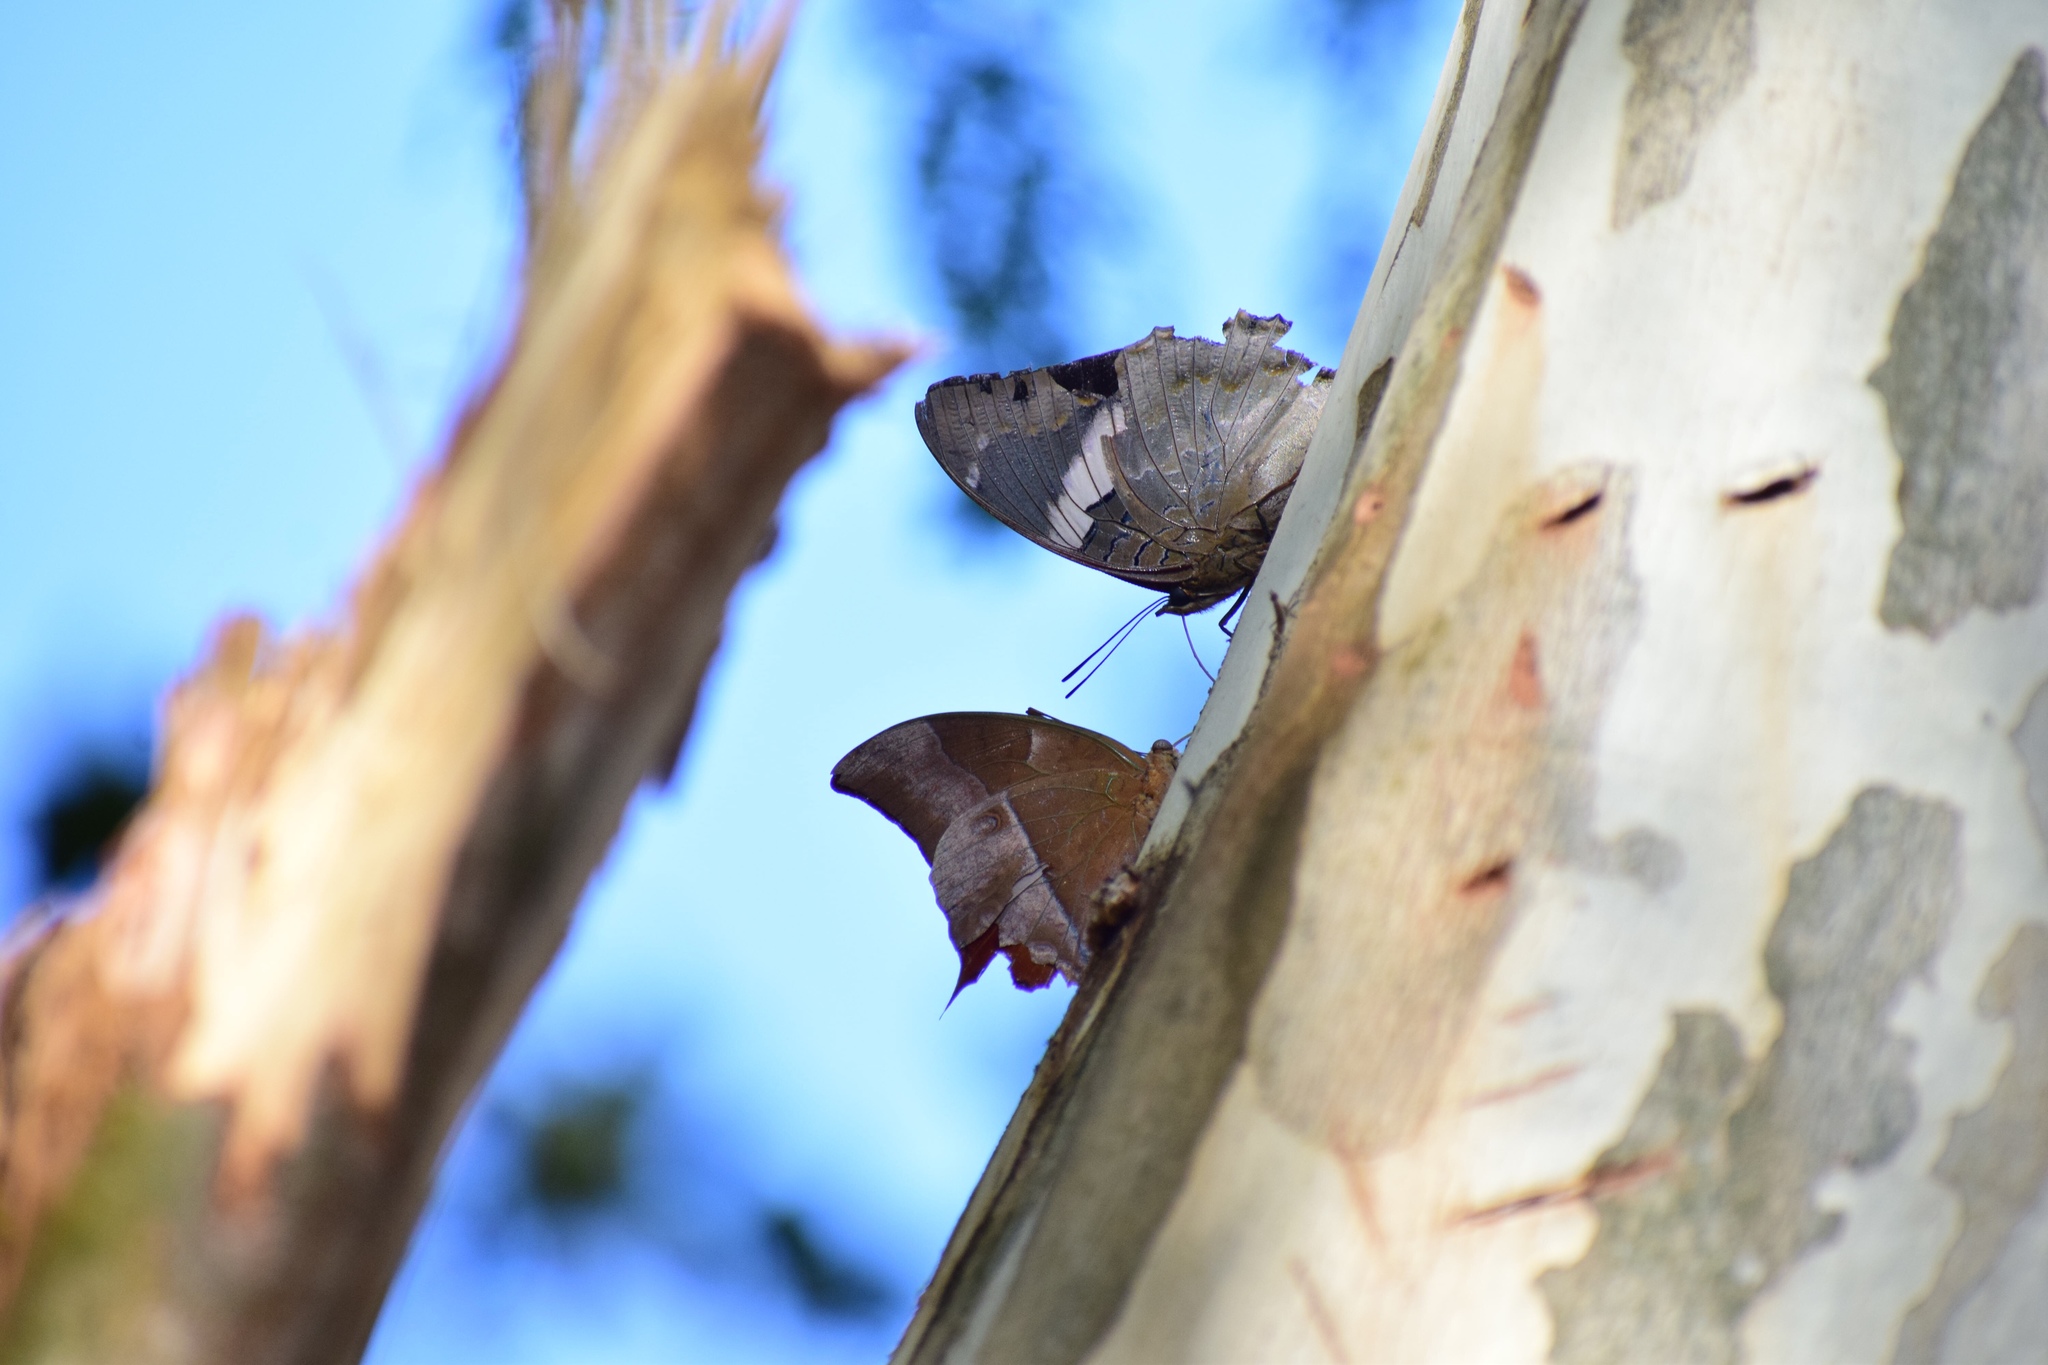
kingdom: Animalia
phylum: Arthropoda
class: Insecta
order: Lepidoptera
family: Nymphalidae
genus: Charaxes
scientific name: Charaxes cithaeron
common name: Blue-spotted charaxes
